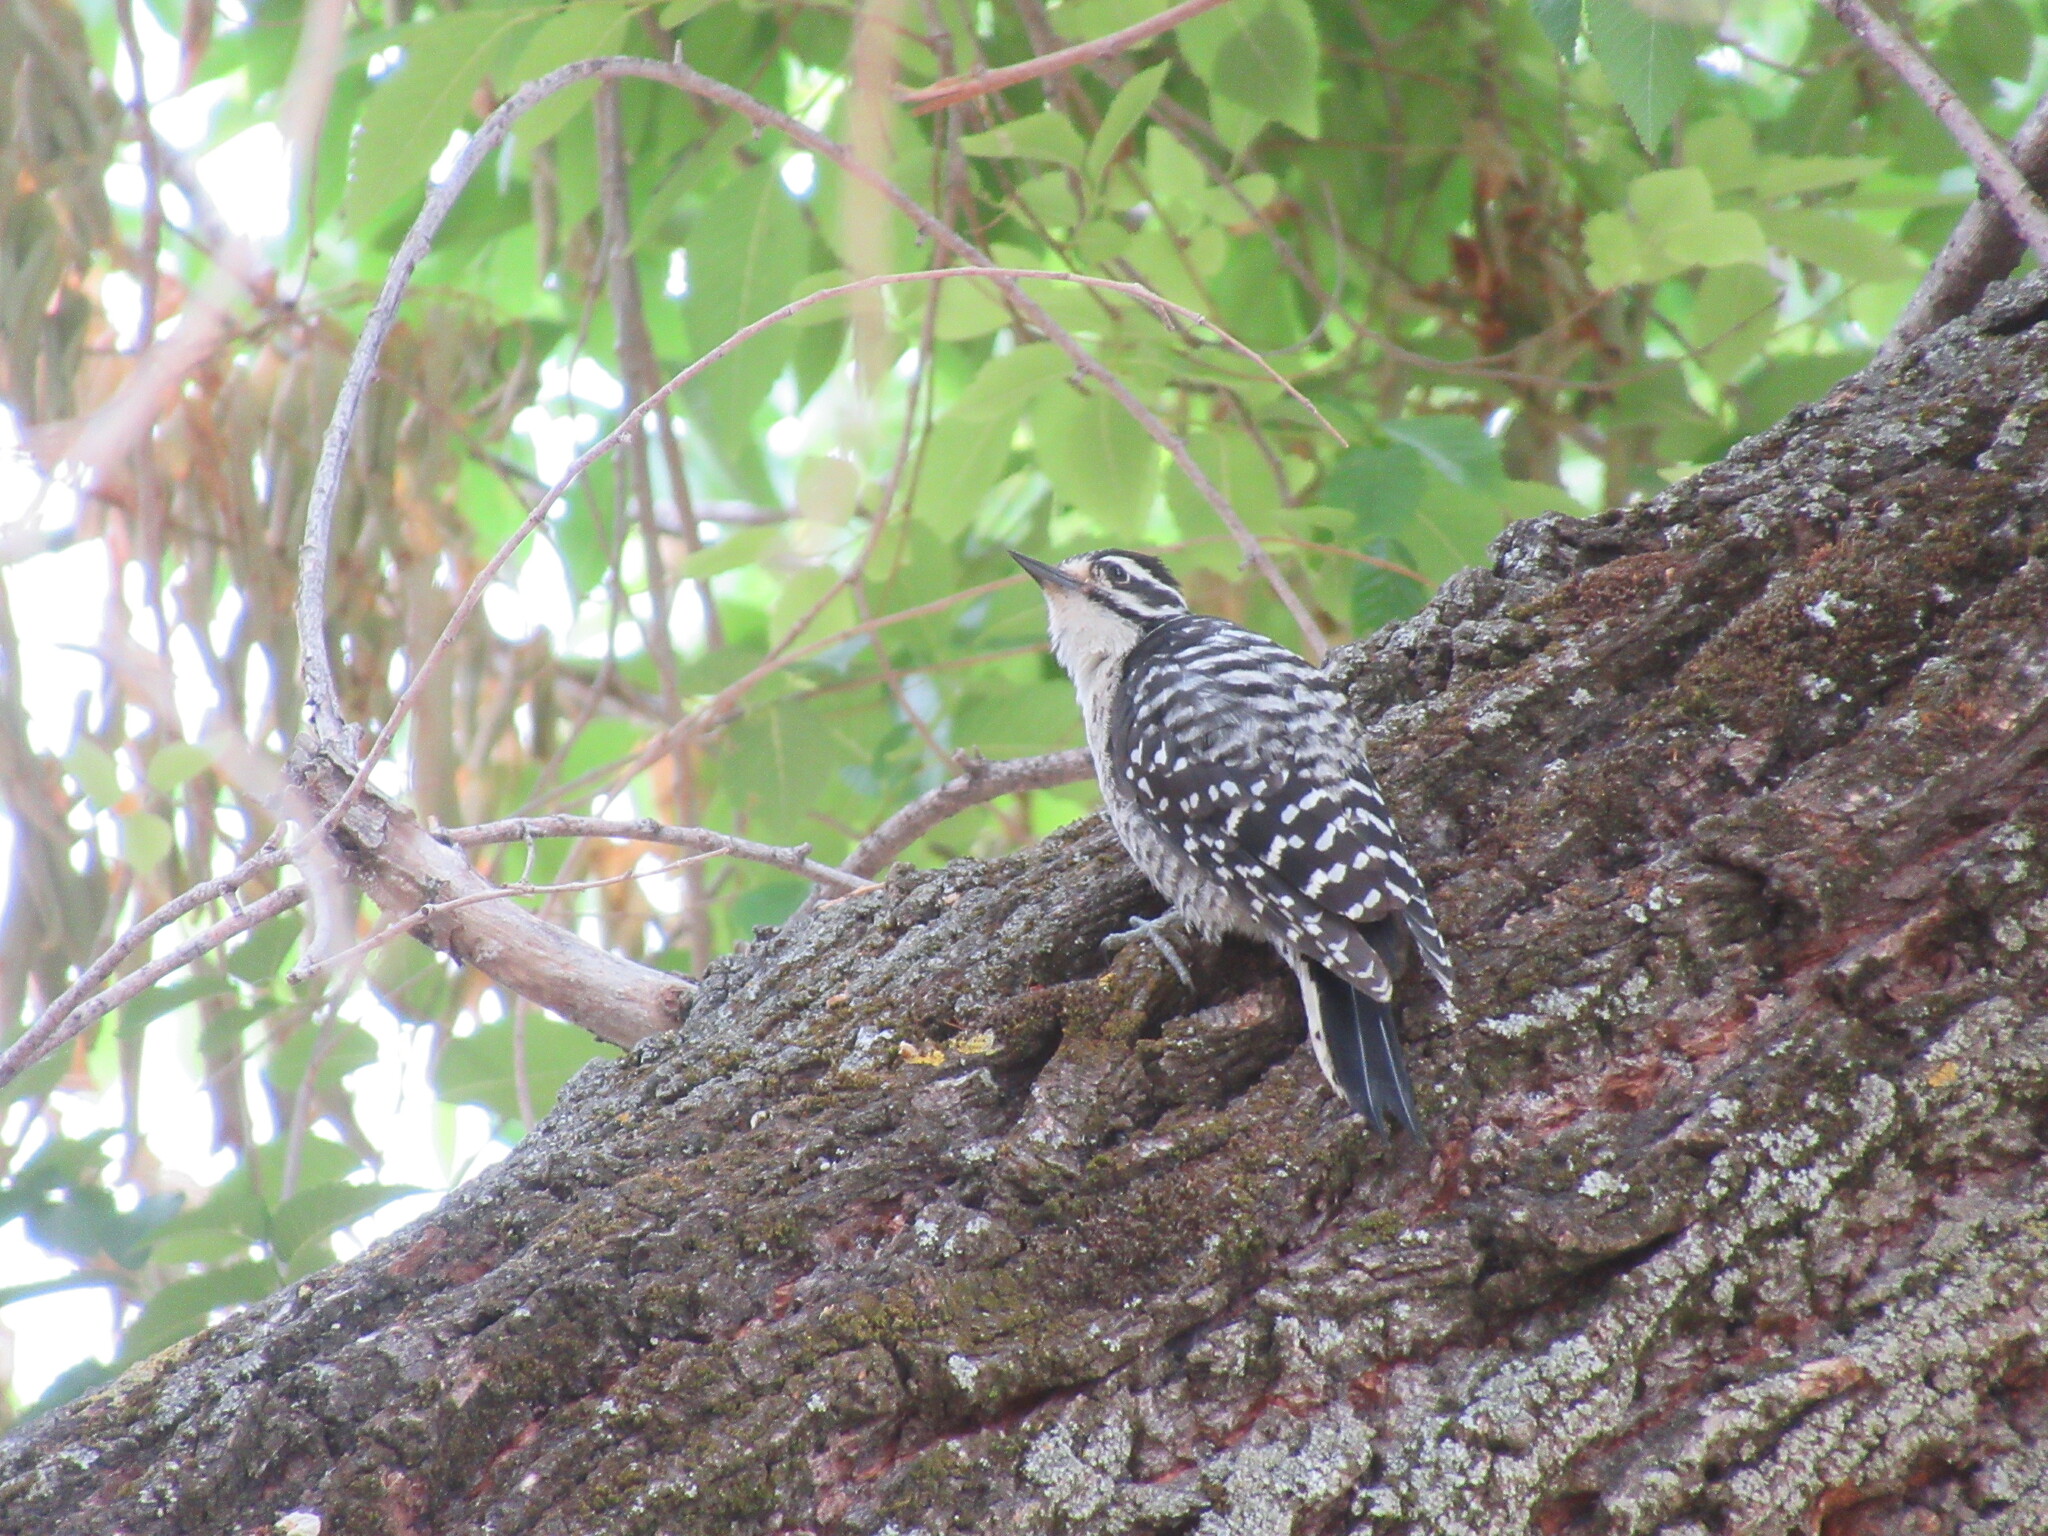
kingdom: Animalia
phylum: Chordata
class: Aves
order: Piciformes
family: Picidae
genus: Dryobates
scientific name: Dryobates nuttallii
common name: Nuttall's woodpecker
